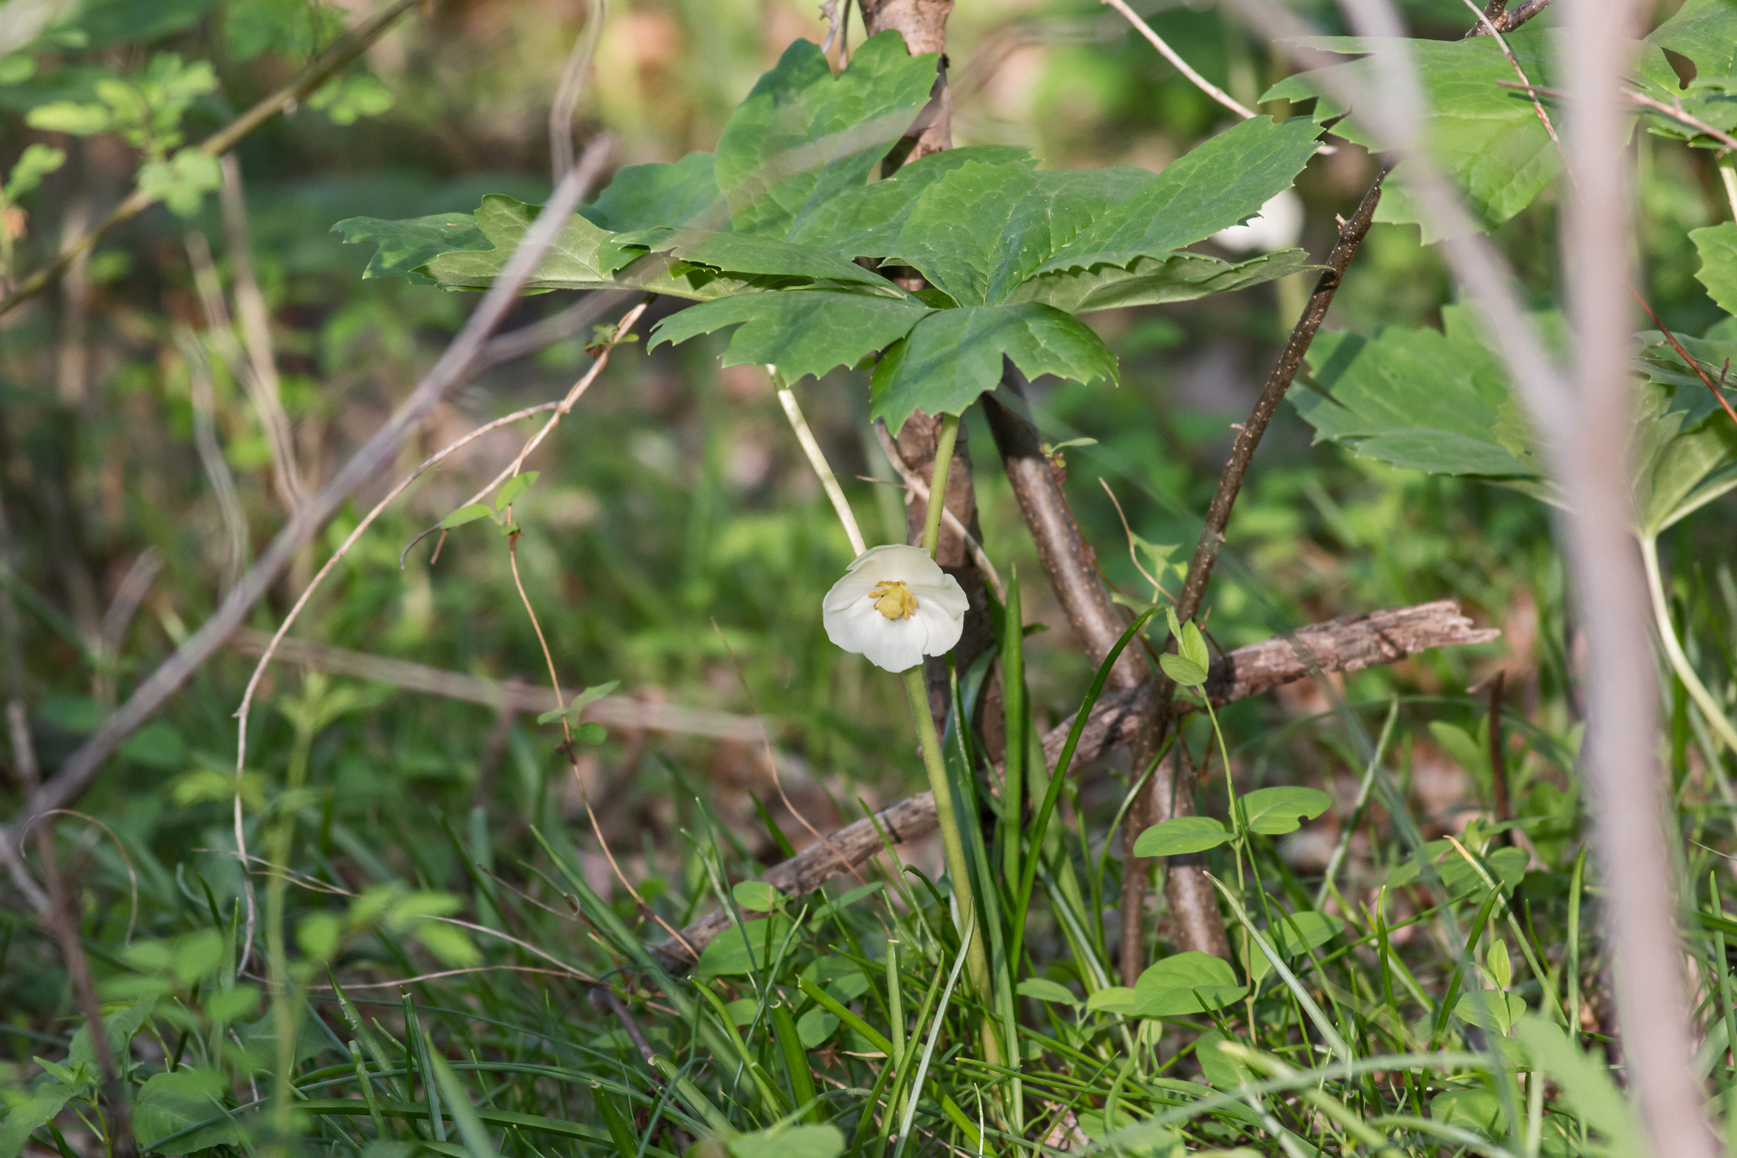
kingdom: Plantae
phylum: Tracheophyta
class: Magnoliopsida
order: Ranunculales
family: Berberidaceae
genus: Podophyllum
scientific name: Podophyllum peltatum
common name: Wild mandrake
